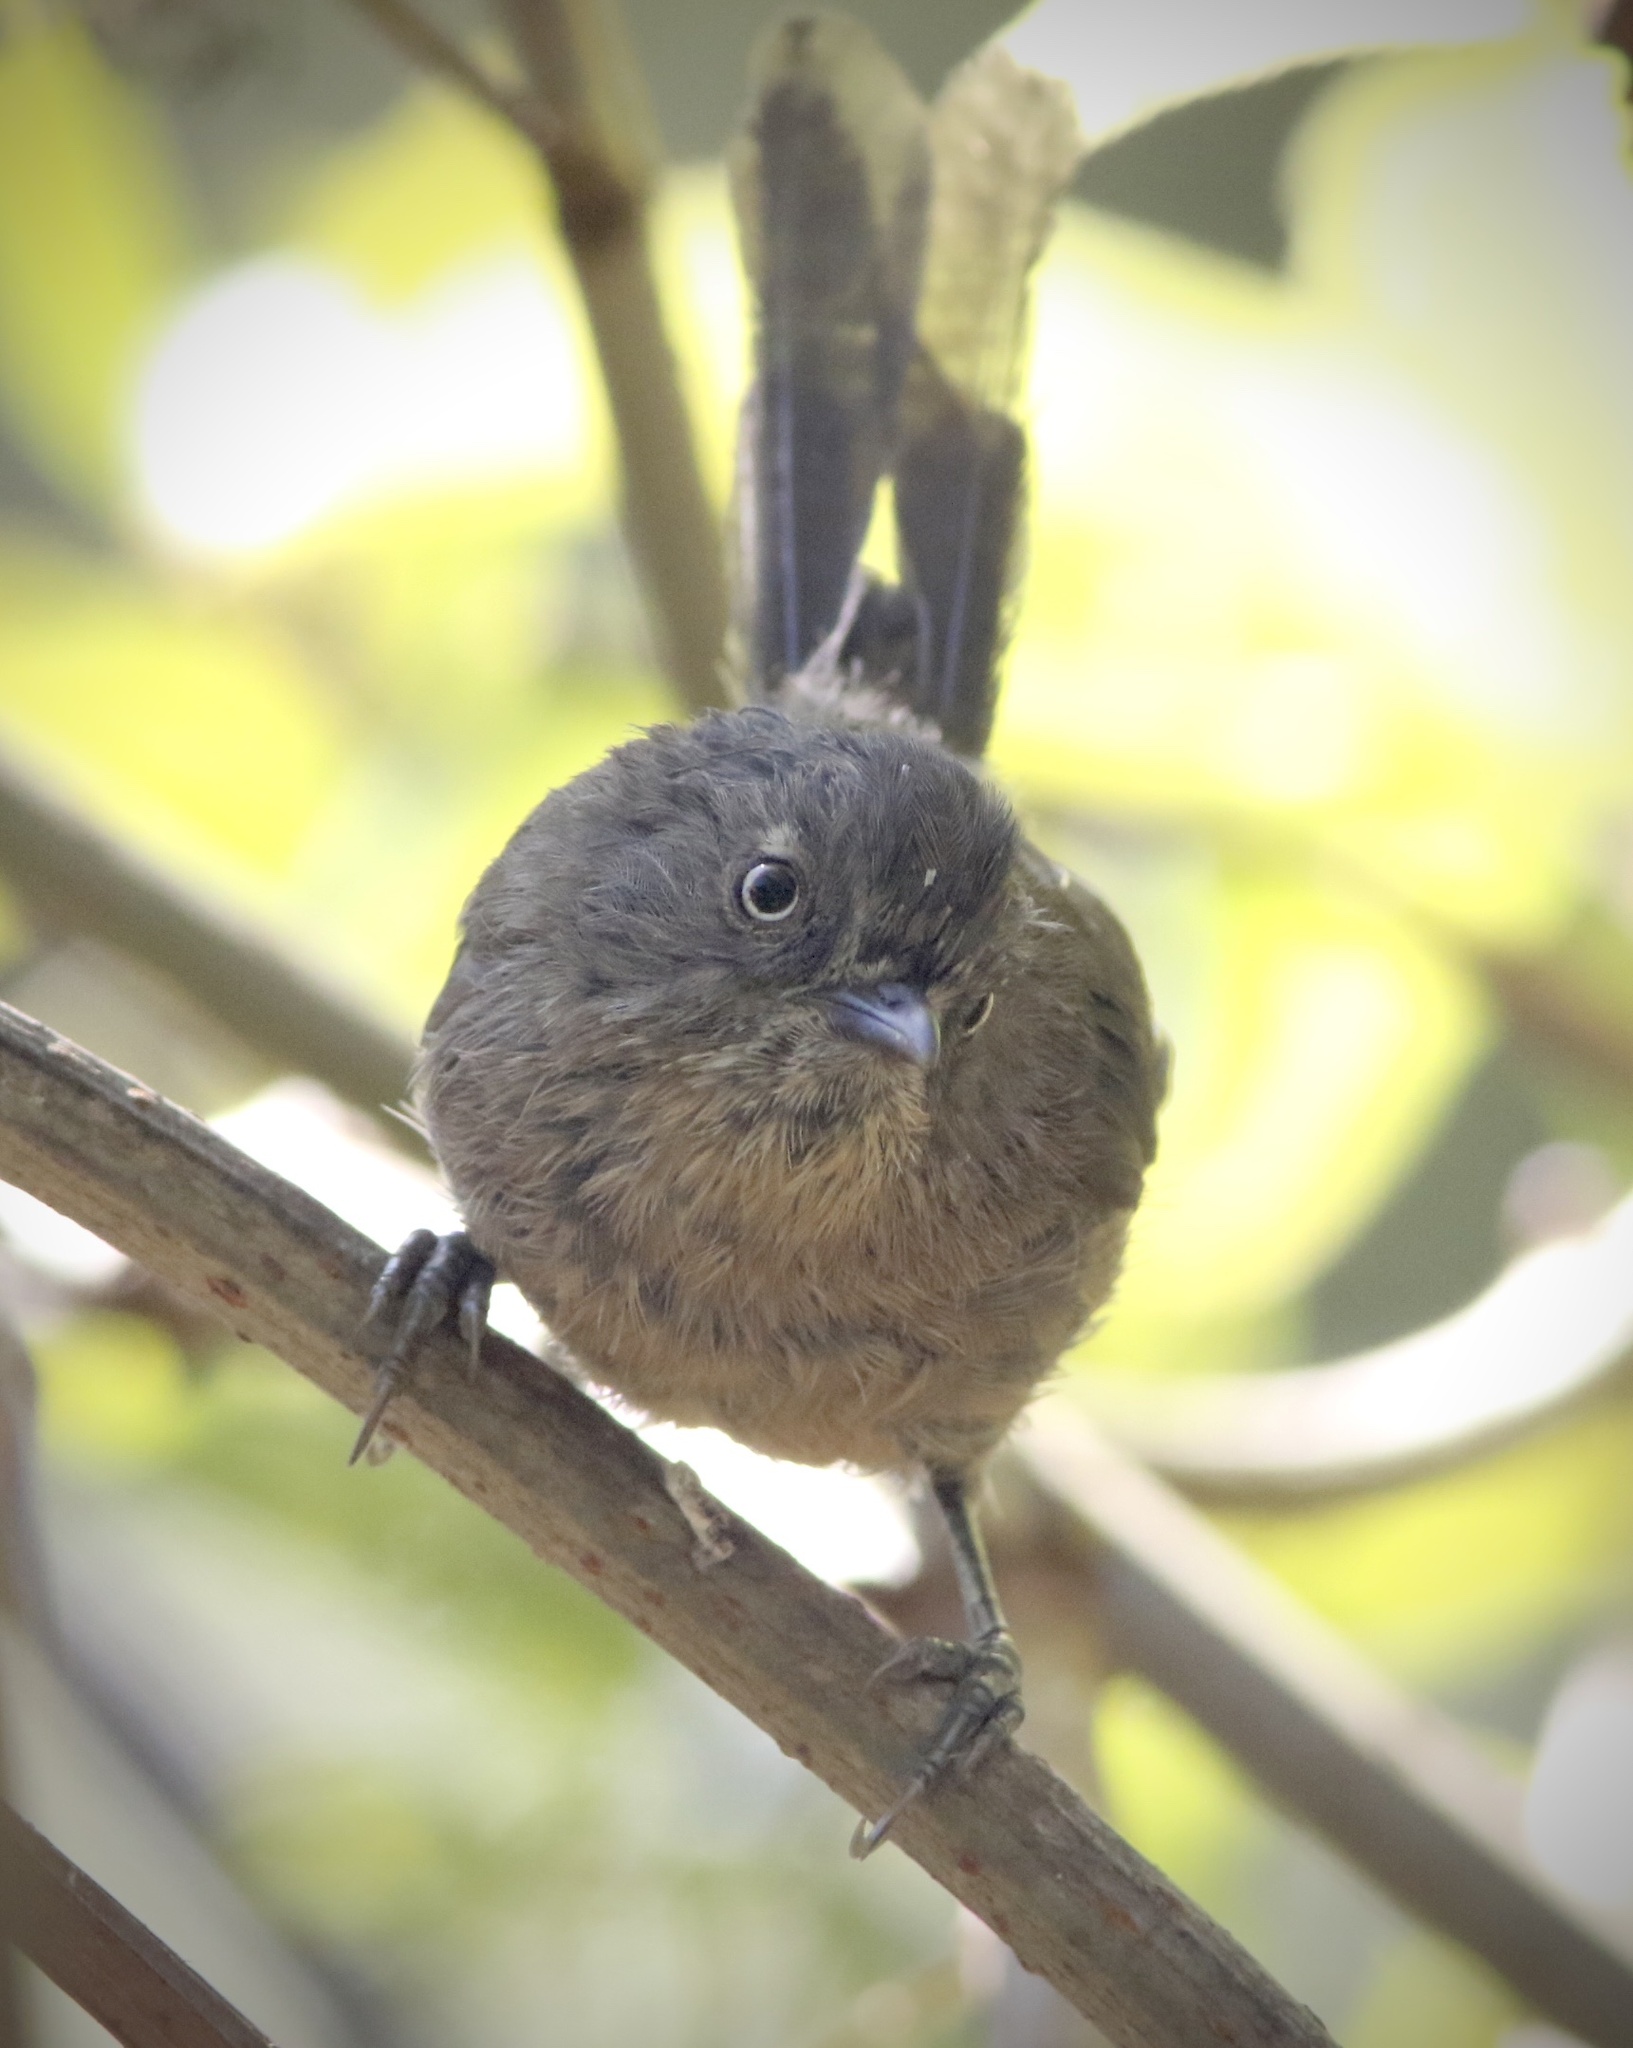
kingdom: Animalia
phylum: Chordata
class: Aves
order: Passeriformes
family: Sylviidae
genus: Chamaea
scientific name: Chamaea fasciata
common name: Wrentit
